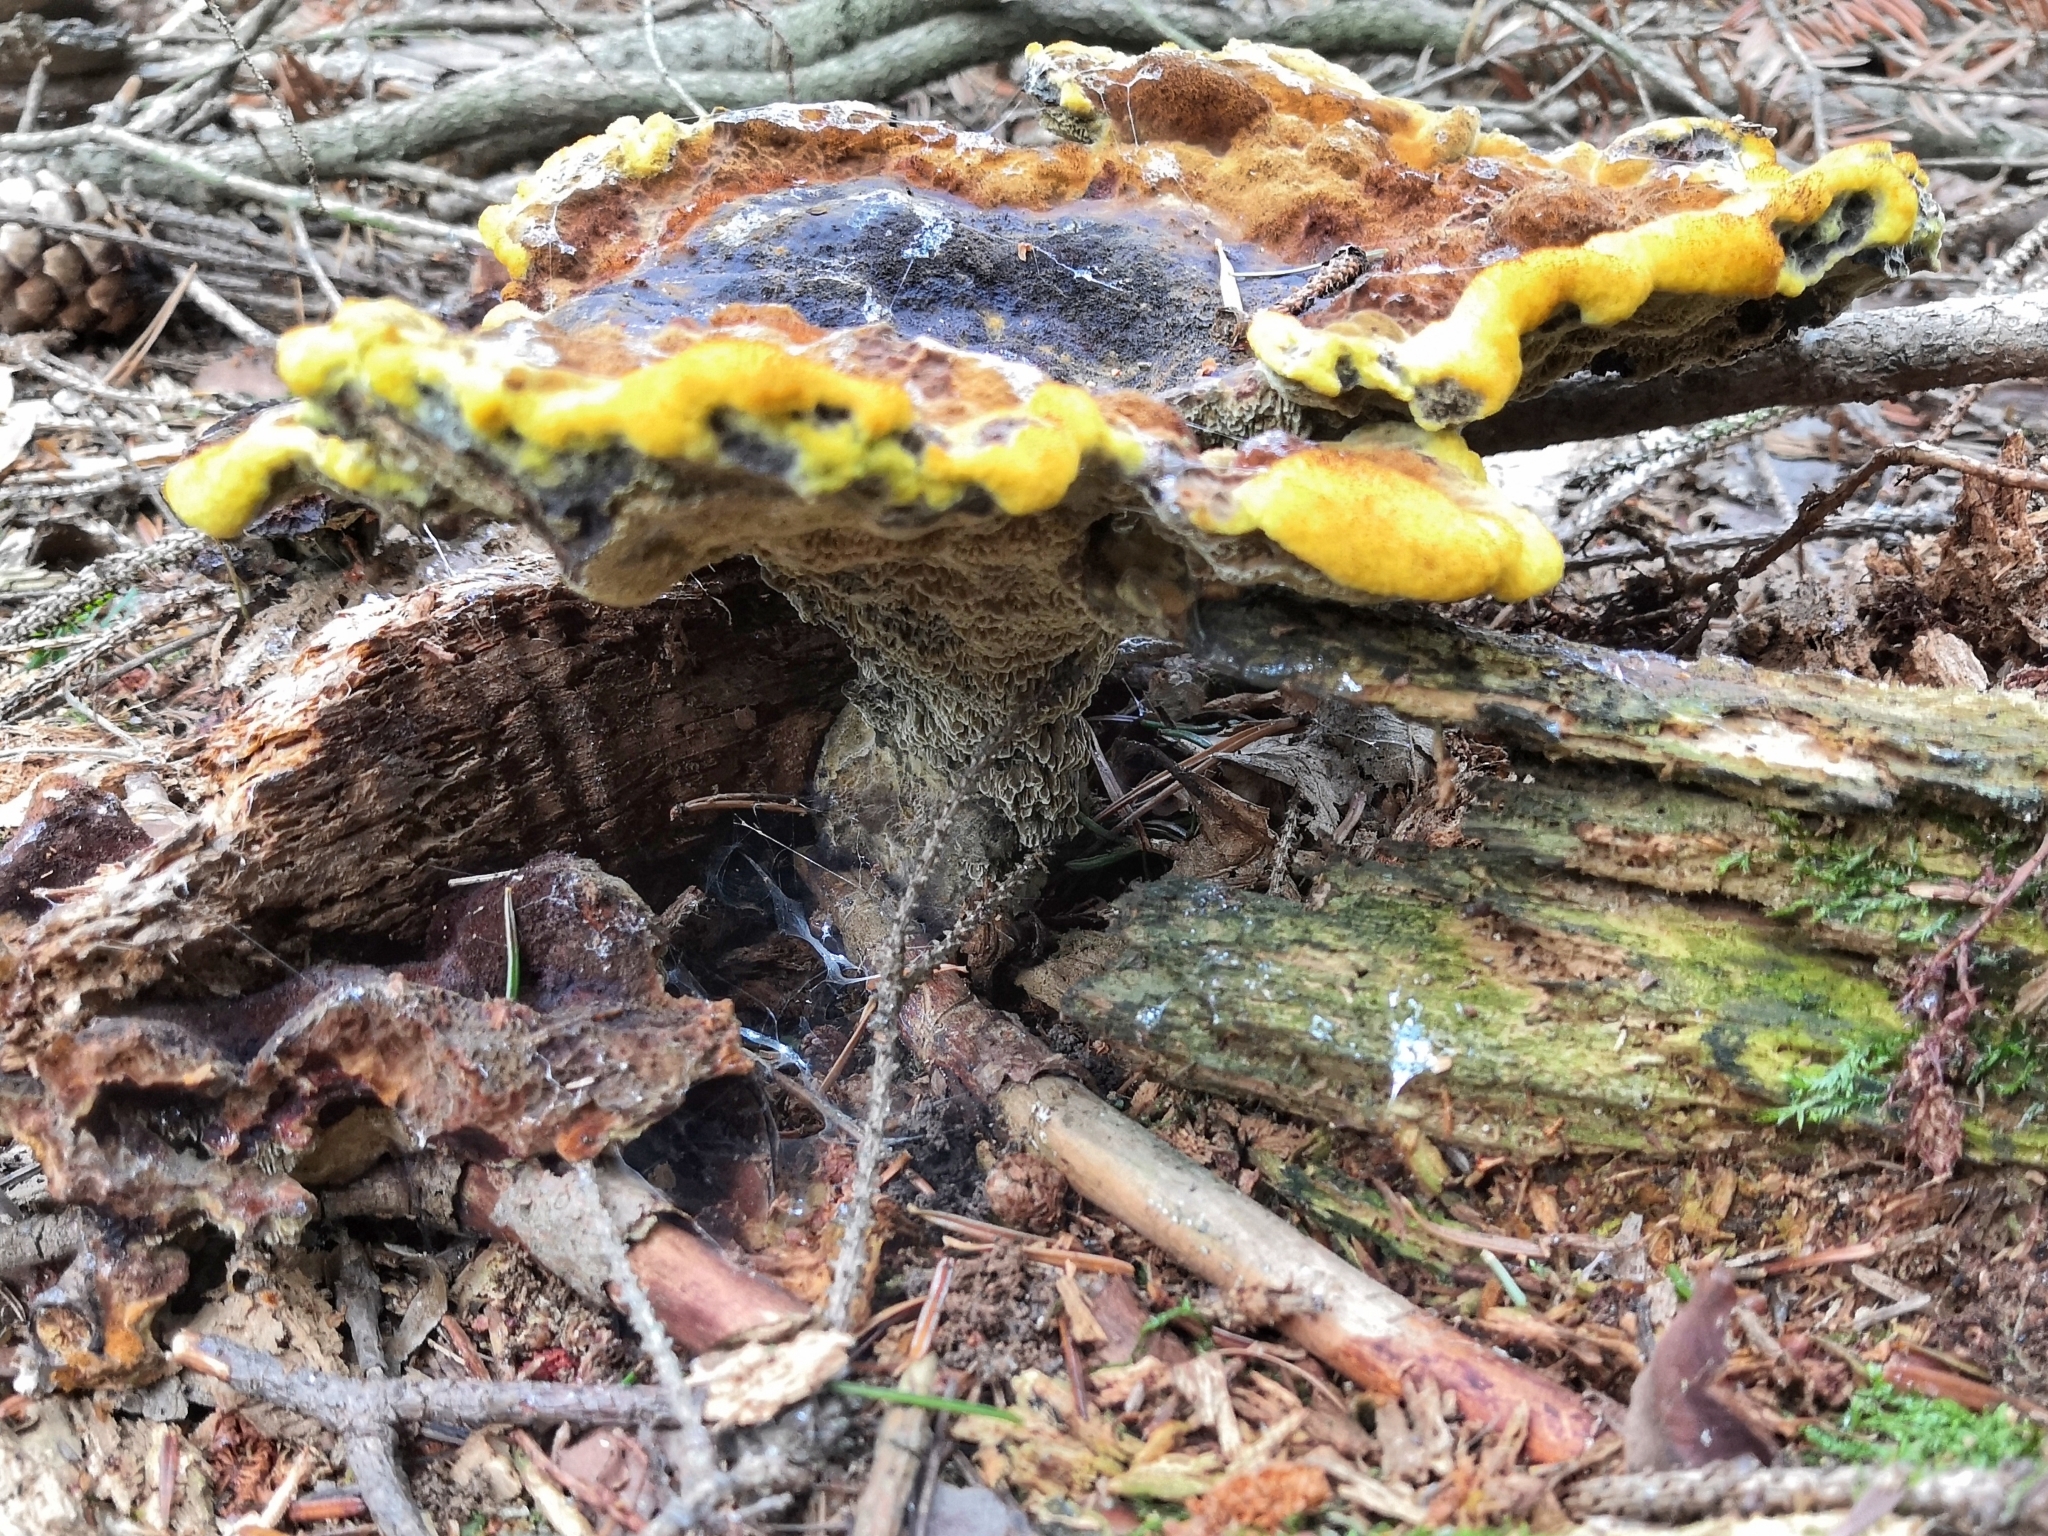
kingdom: Fungi
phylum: Basidiomycota
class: Agaricomycetes
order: Polyporales
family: Laetiporaceae
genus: Phaeolus
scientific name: Phaeolus schweinitzii
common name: Dyer's mazegill
